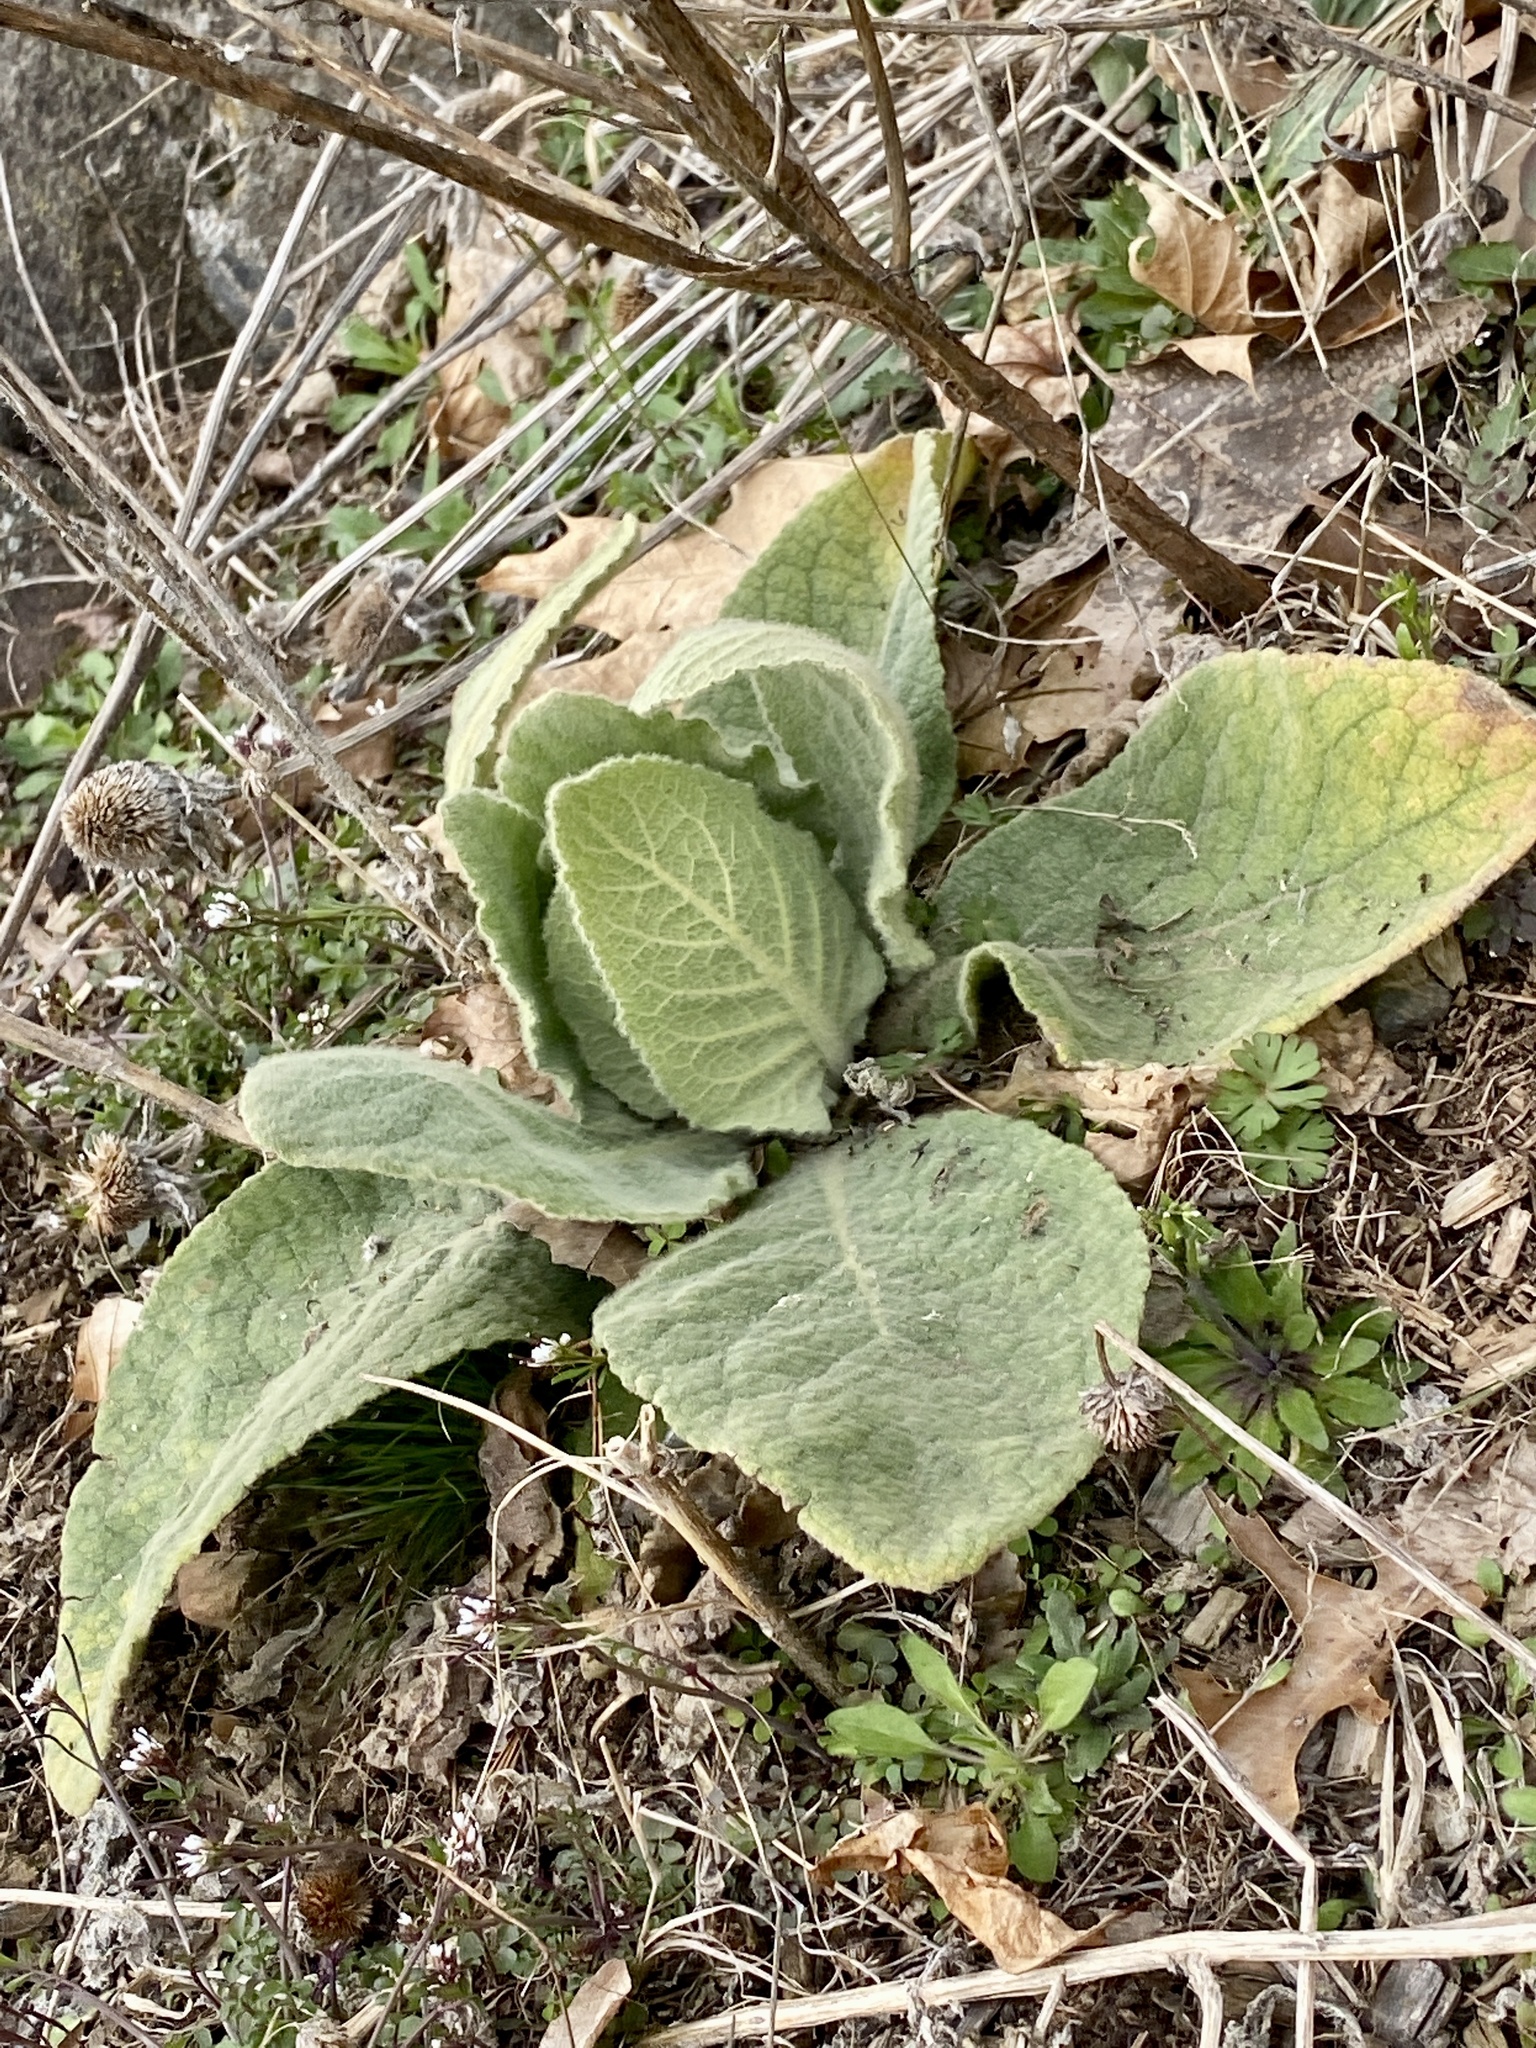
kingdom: Plantae
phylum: Tracheophyta
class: Magnoliopsida
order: Lamiales
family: Scrophulariaceae
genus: Verbascum
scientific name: Verbascum thapsus
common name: Common mullein
